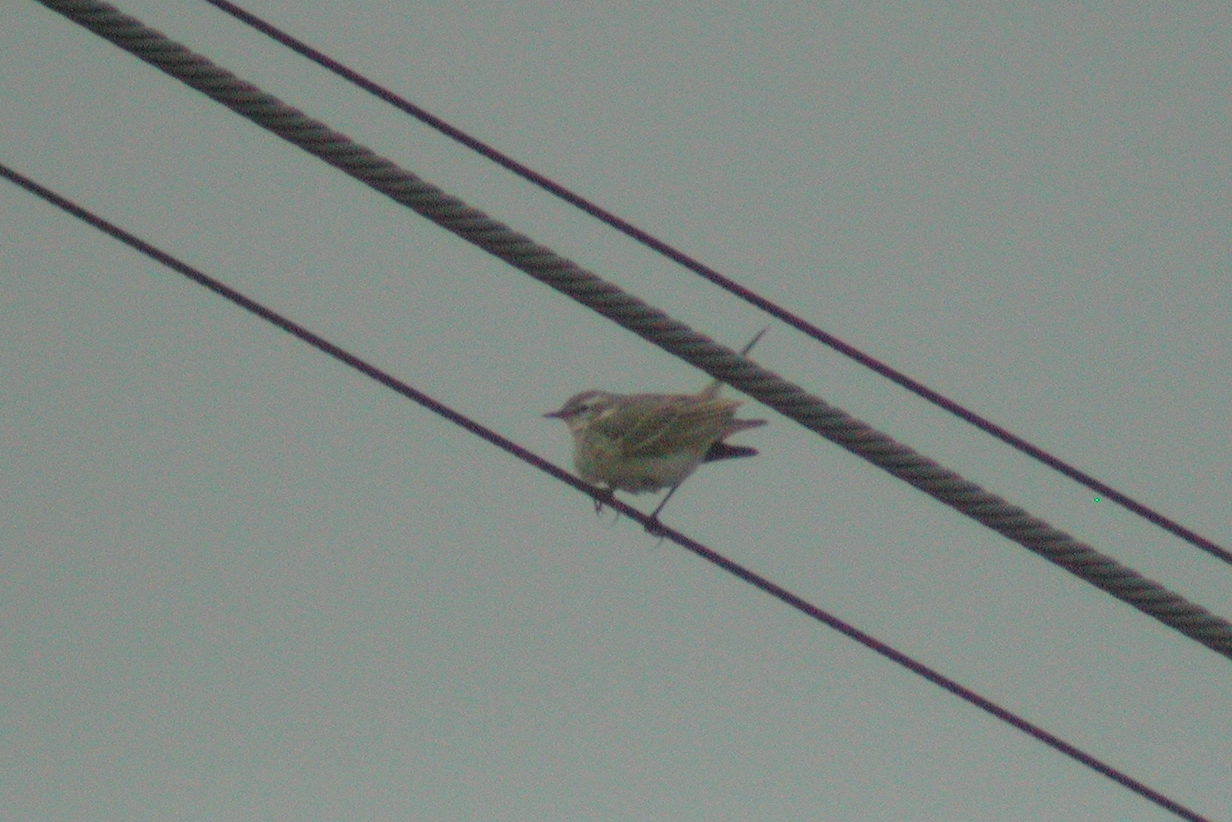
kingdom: Animalia
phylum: Chordata
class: Aves
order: Passeriformes
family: Motacillidae
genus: Anthus
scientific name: Anthus spinoletta
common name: Water pipit
